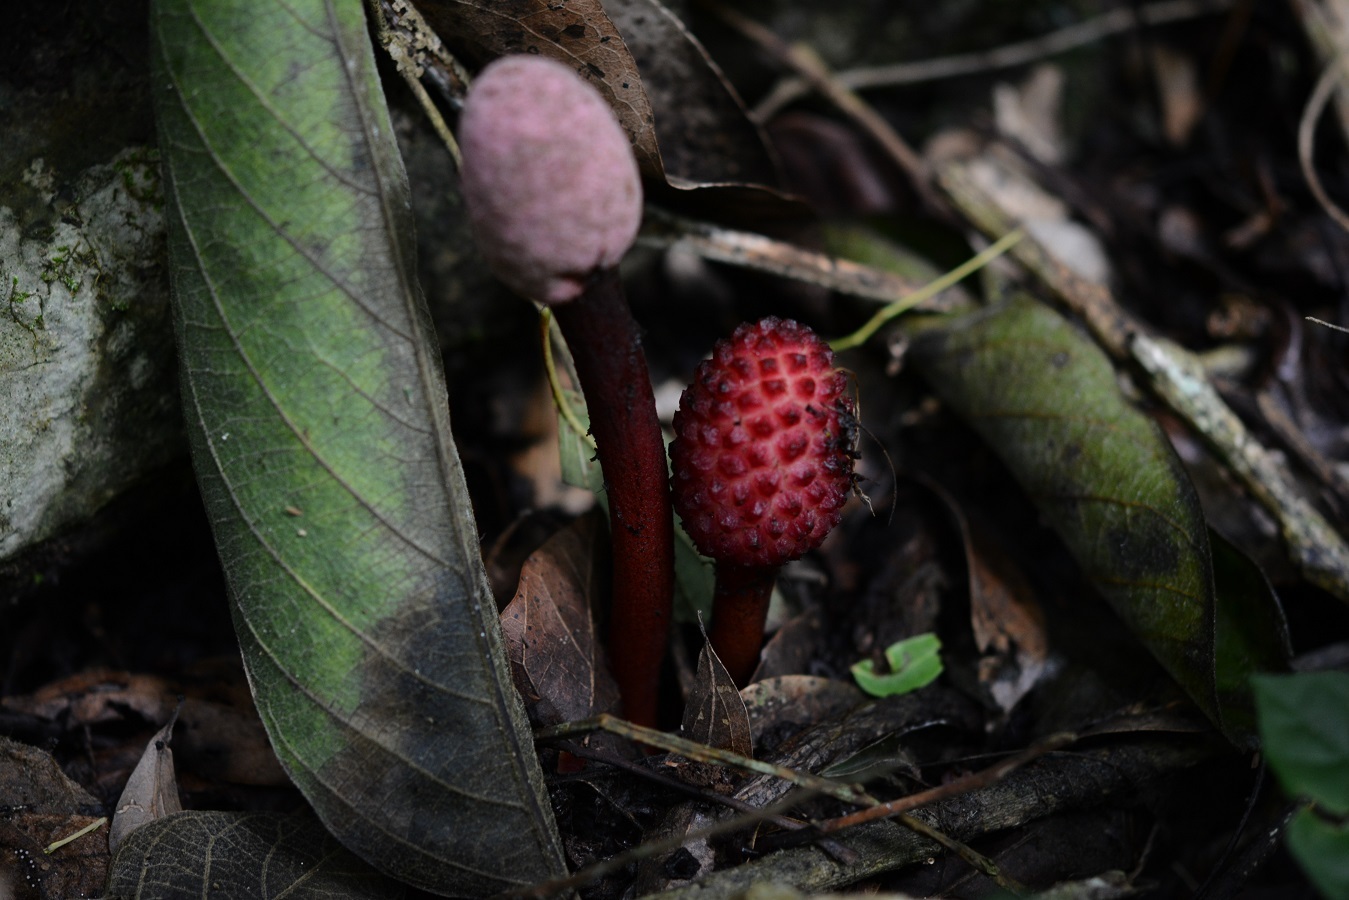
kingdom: Plantae
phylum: Tracheophyta
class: Magnoliopsida
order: Santalales
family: Balanophoraceae
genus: Helosis
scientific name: Helosis cayennensis
